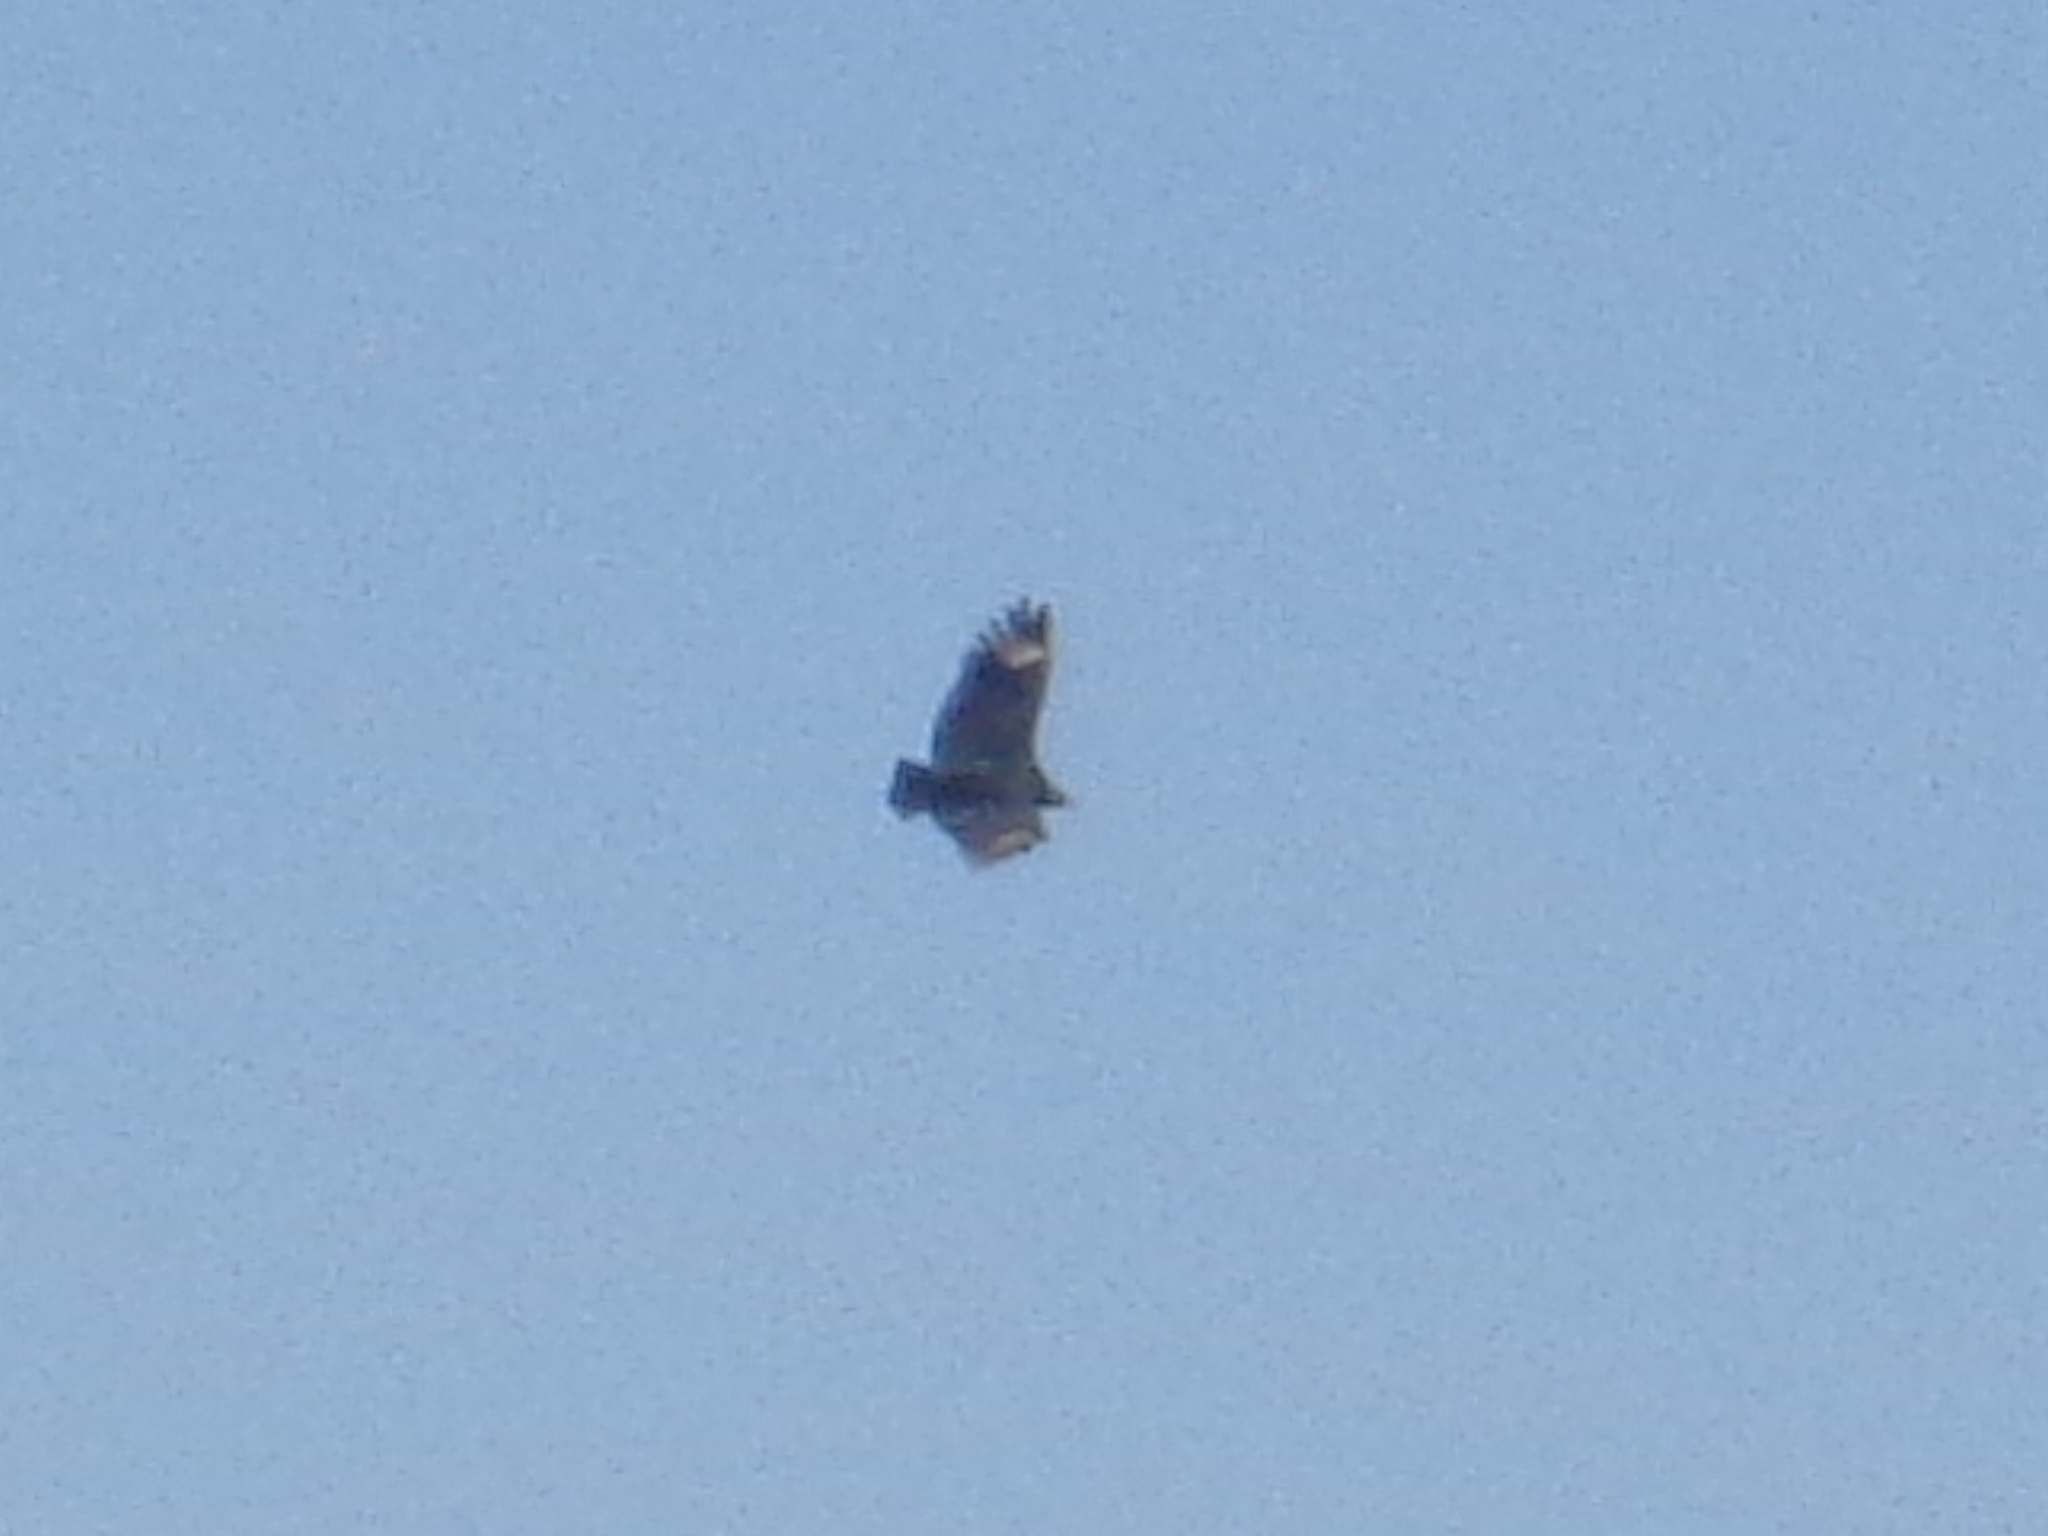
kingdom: Animalia
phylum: Chordata
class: Aves
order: Accipitriformes
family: Cathartidae
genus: Coragyps
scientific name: Coragyps atratus
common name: Black vulture
